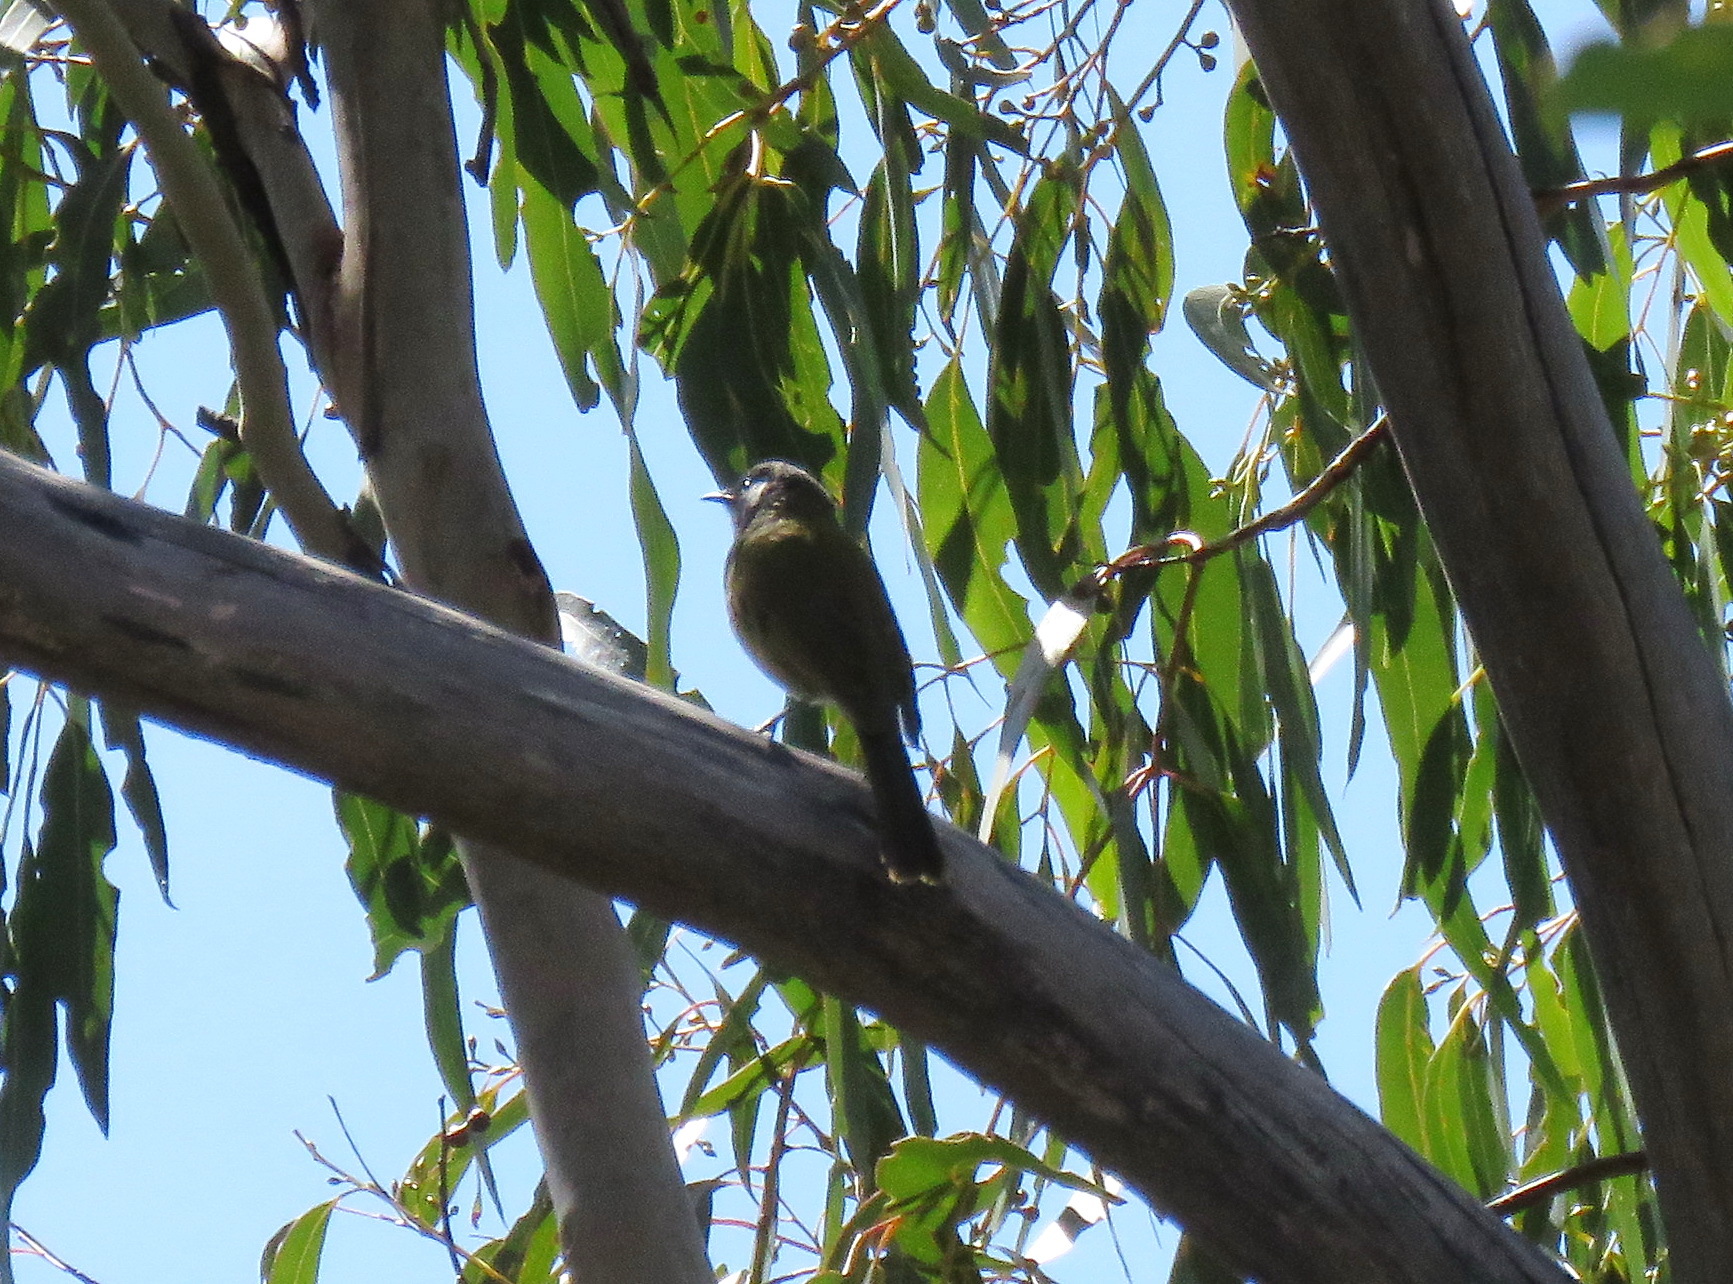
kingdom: Animalia
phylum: Chordata
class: Aves
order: Passeriformes
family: Meliphagidae
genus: Nesoptilotis
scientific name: Nesoptilotis leucotis
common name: White-eared honeyeater
